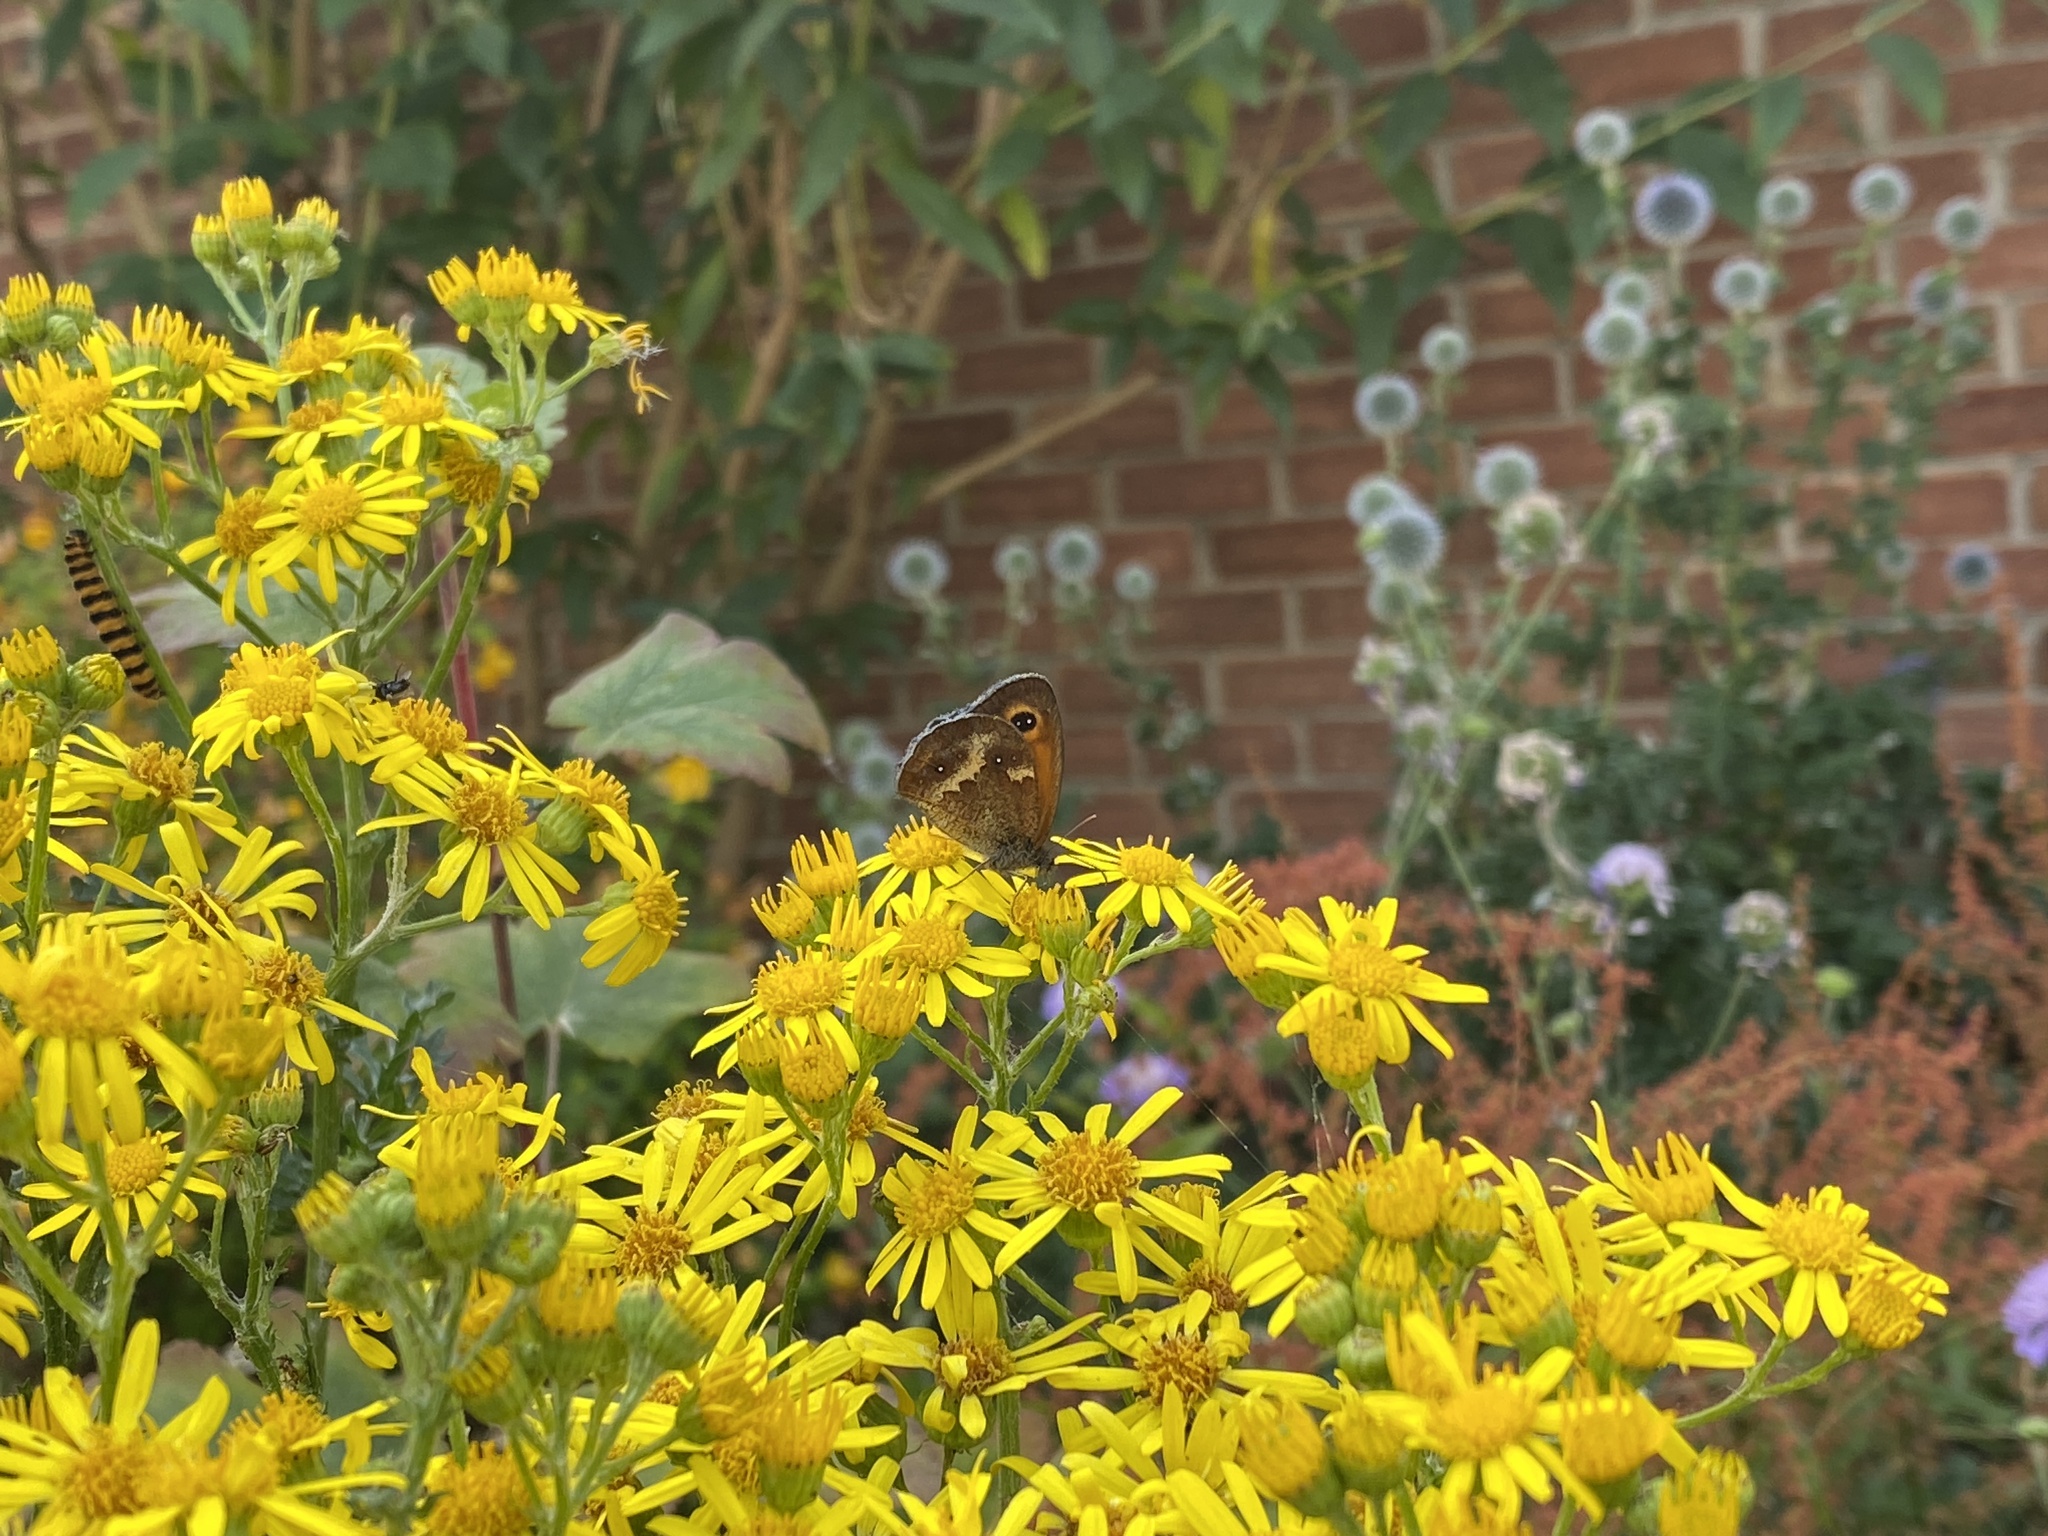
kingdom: Animalia
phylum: Arthropoda
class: Insecta
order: Lepidoptera
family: Nymphalidae
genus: Pyronia
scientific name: Pyronia tithonus
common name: Gatekeeper
